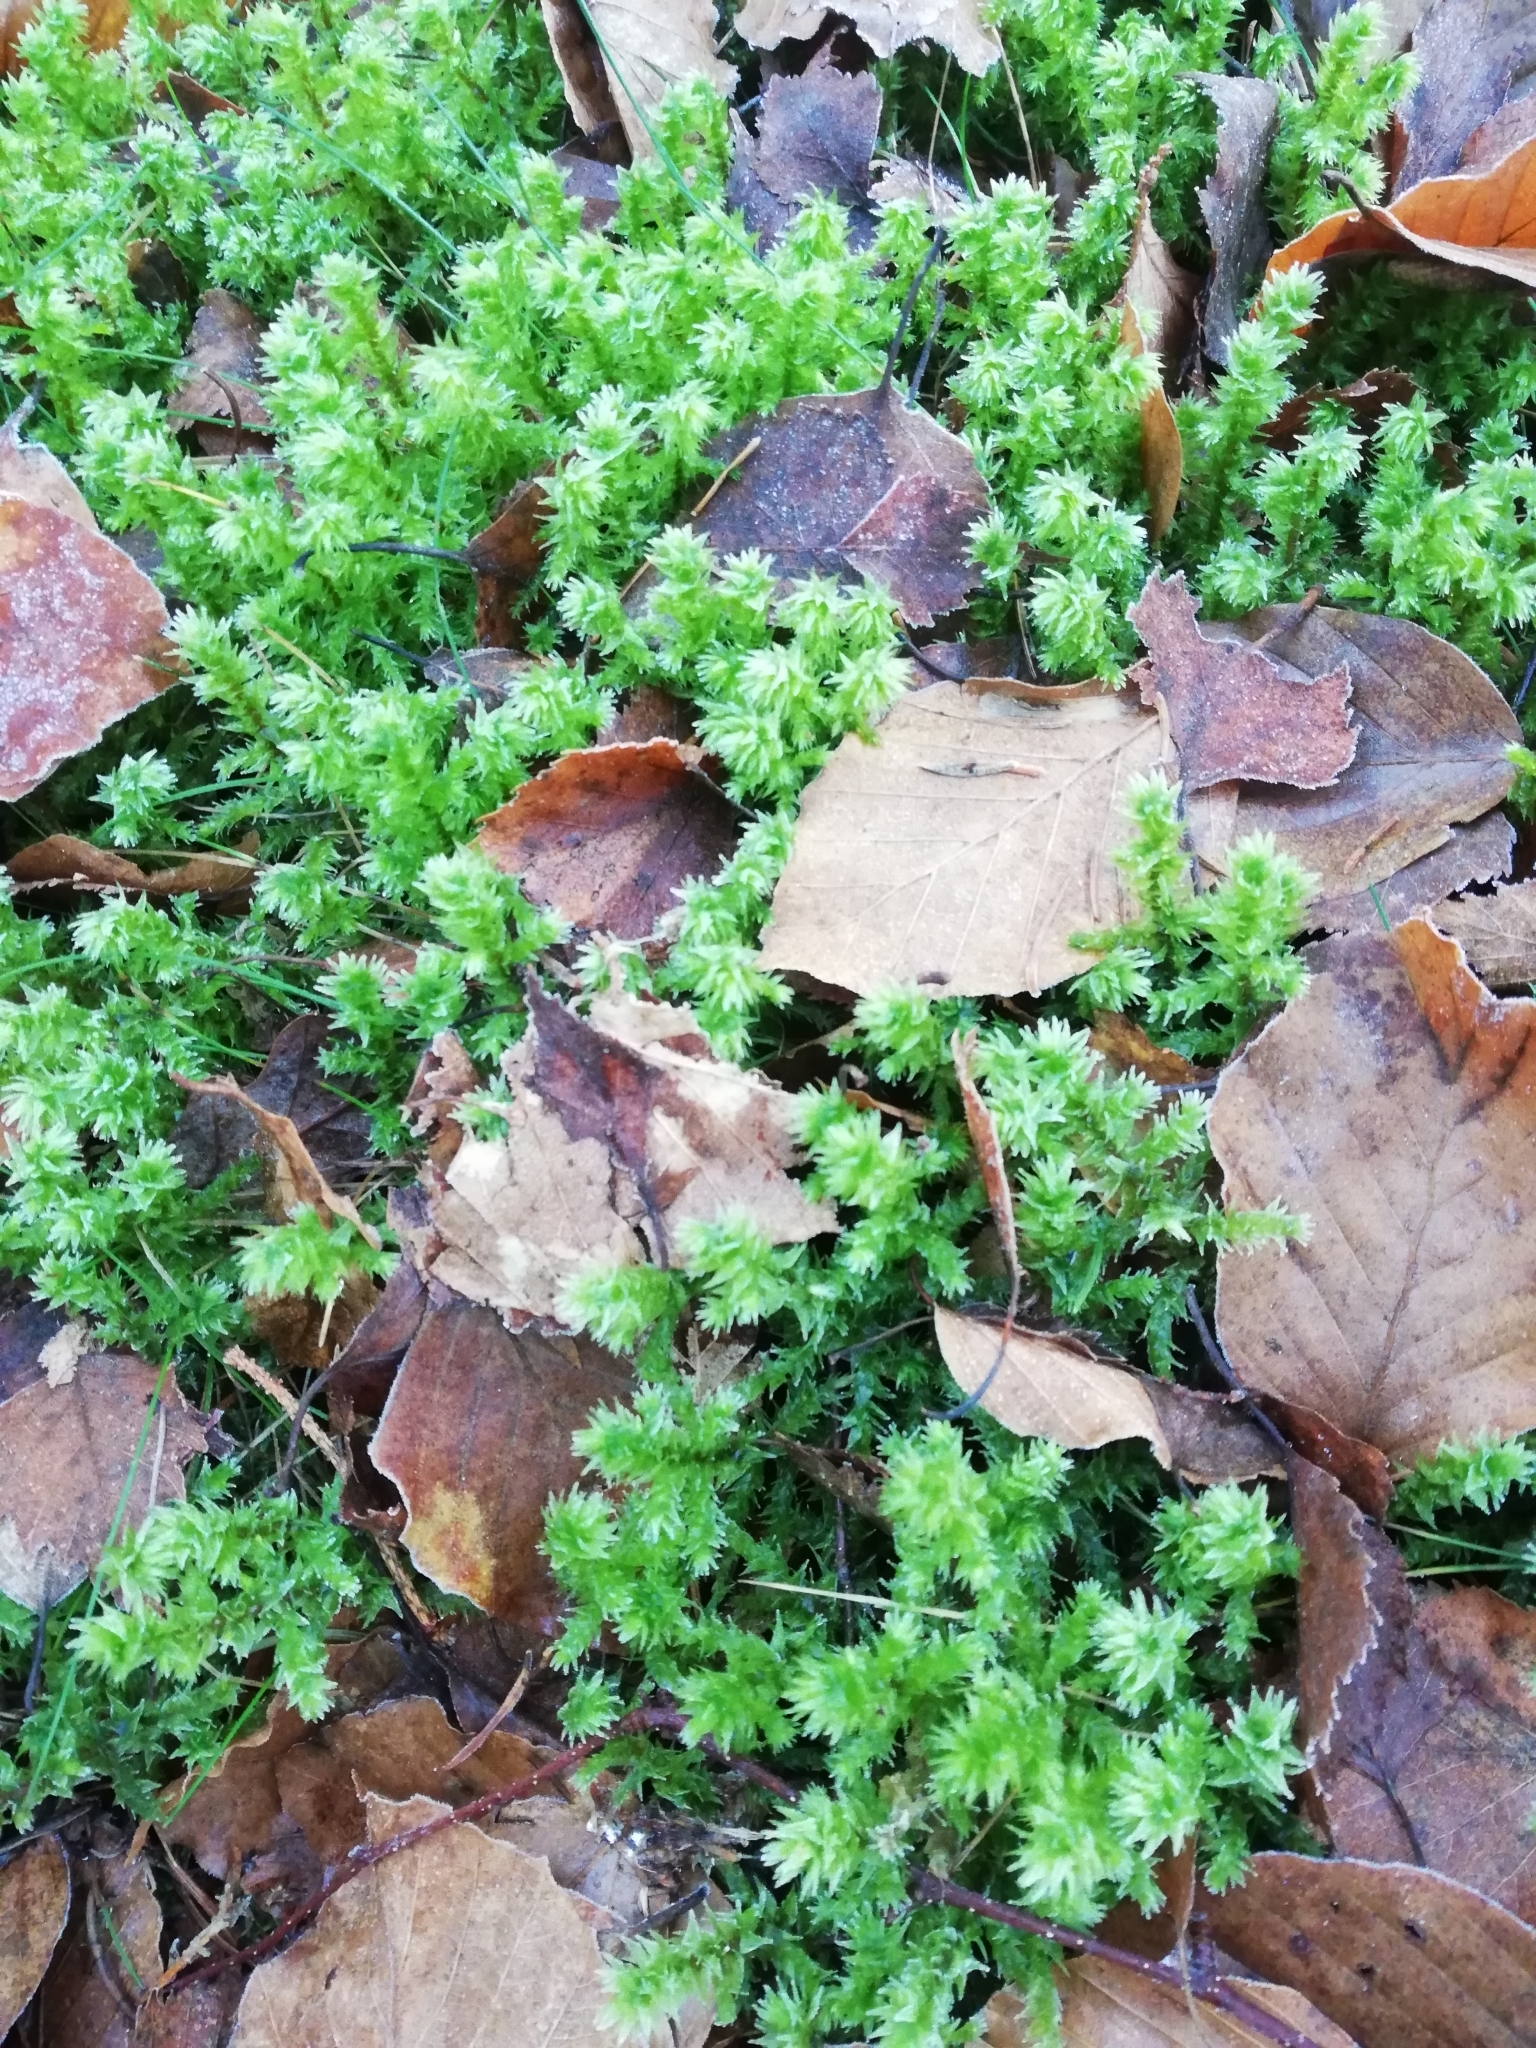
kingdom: Plantae
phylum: Bryophyta
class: Bryopsida
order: Hypnales
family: Hylocomiaceae
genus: Hylocomiadelphus
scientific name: Hylocomiadelphus triquetrus
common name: Rough goose neck moss
